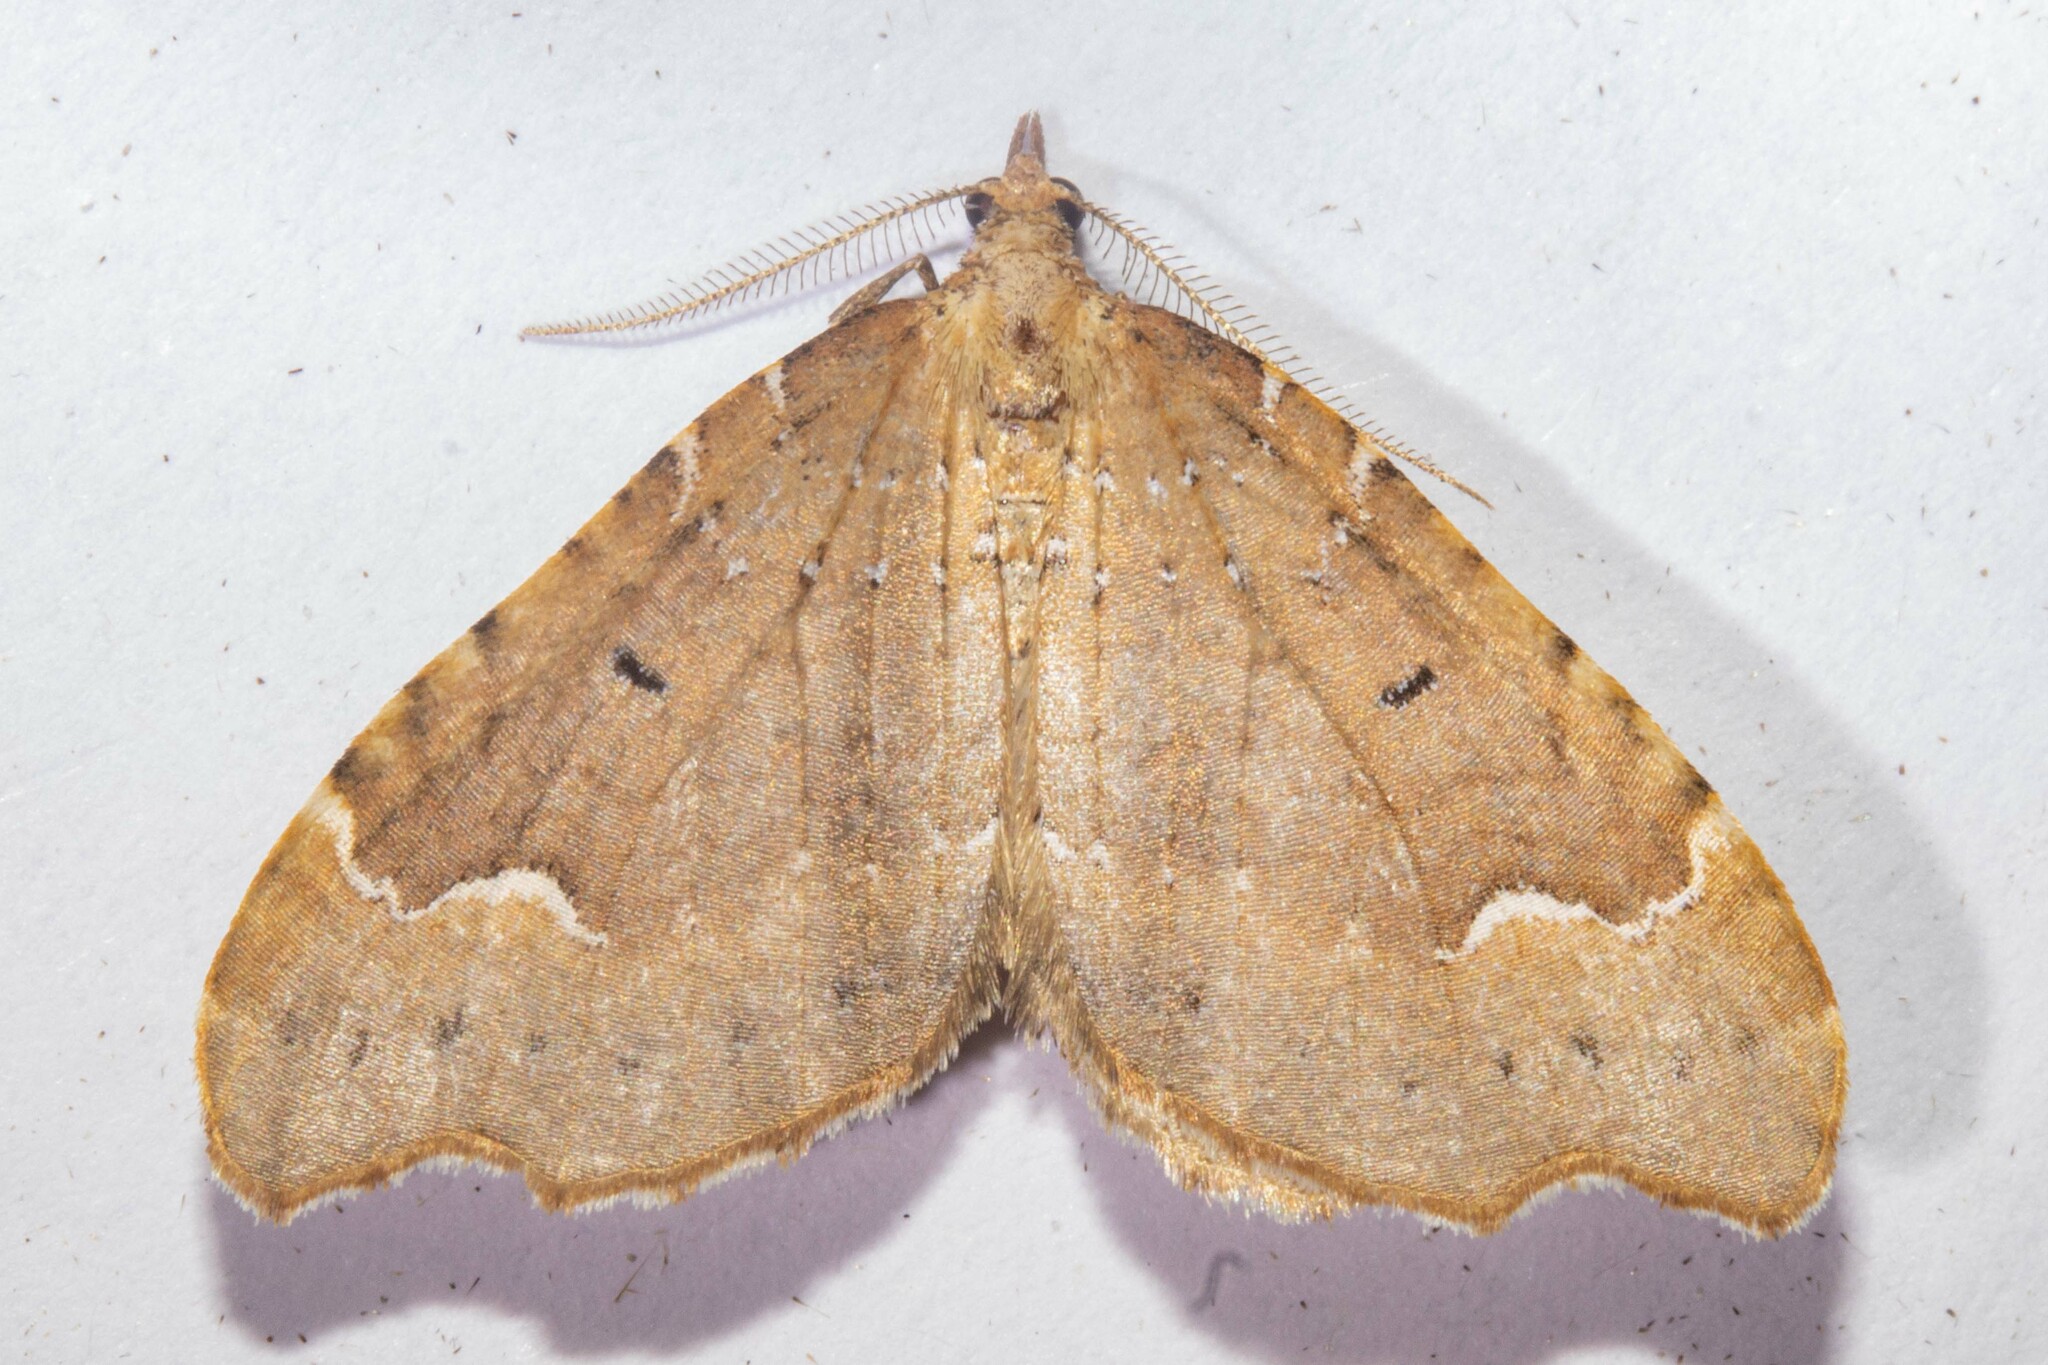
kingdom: Animalia
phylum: Arthropoda
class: Insecta
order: Lepidoptera
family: Geometridae
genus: Asaphodes
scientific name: Asaphodes camelias
